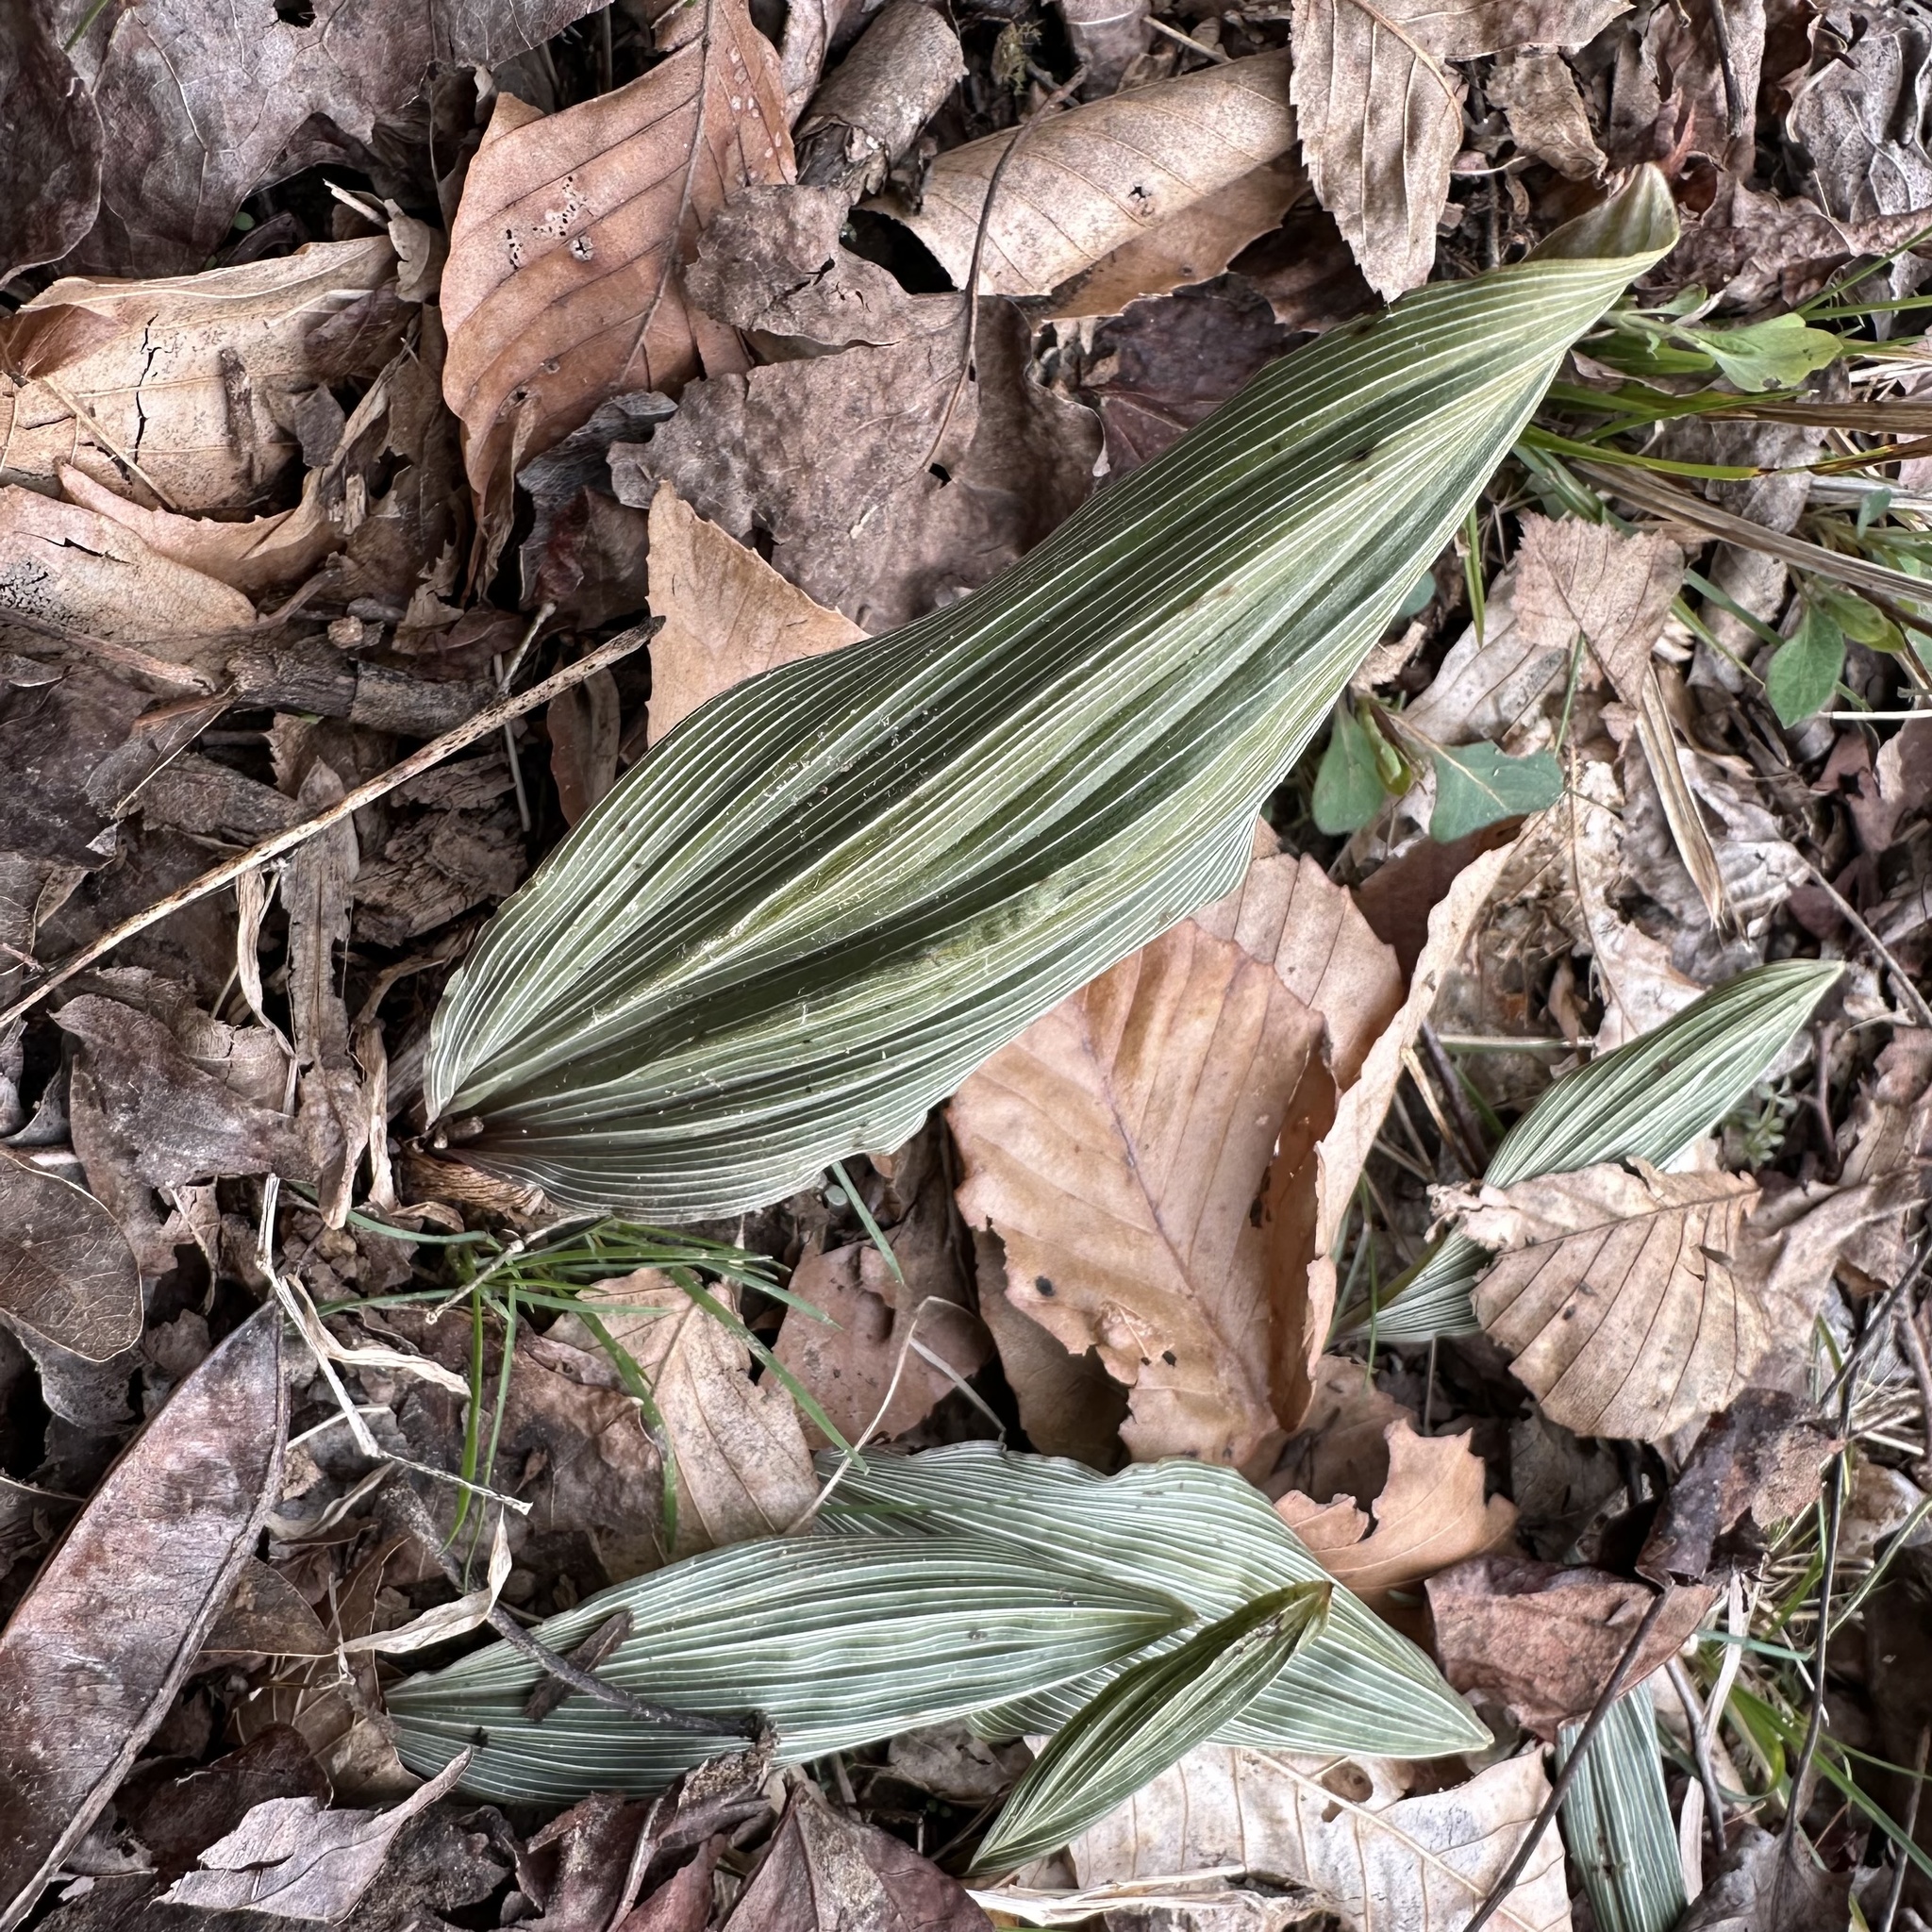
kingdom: Plantae
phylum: Tracheophyta
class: Liliopsida
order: Asparagales
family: Orchidaceae
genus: Aplectrum
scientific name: Aplectrum hyemale
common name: Adam-and-eve
